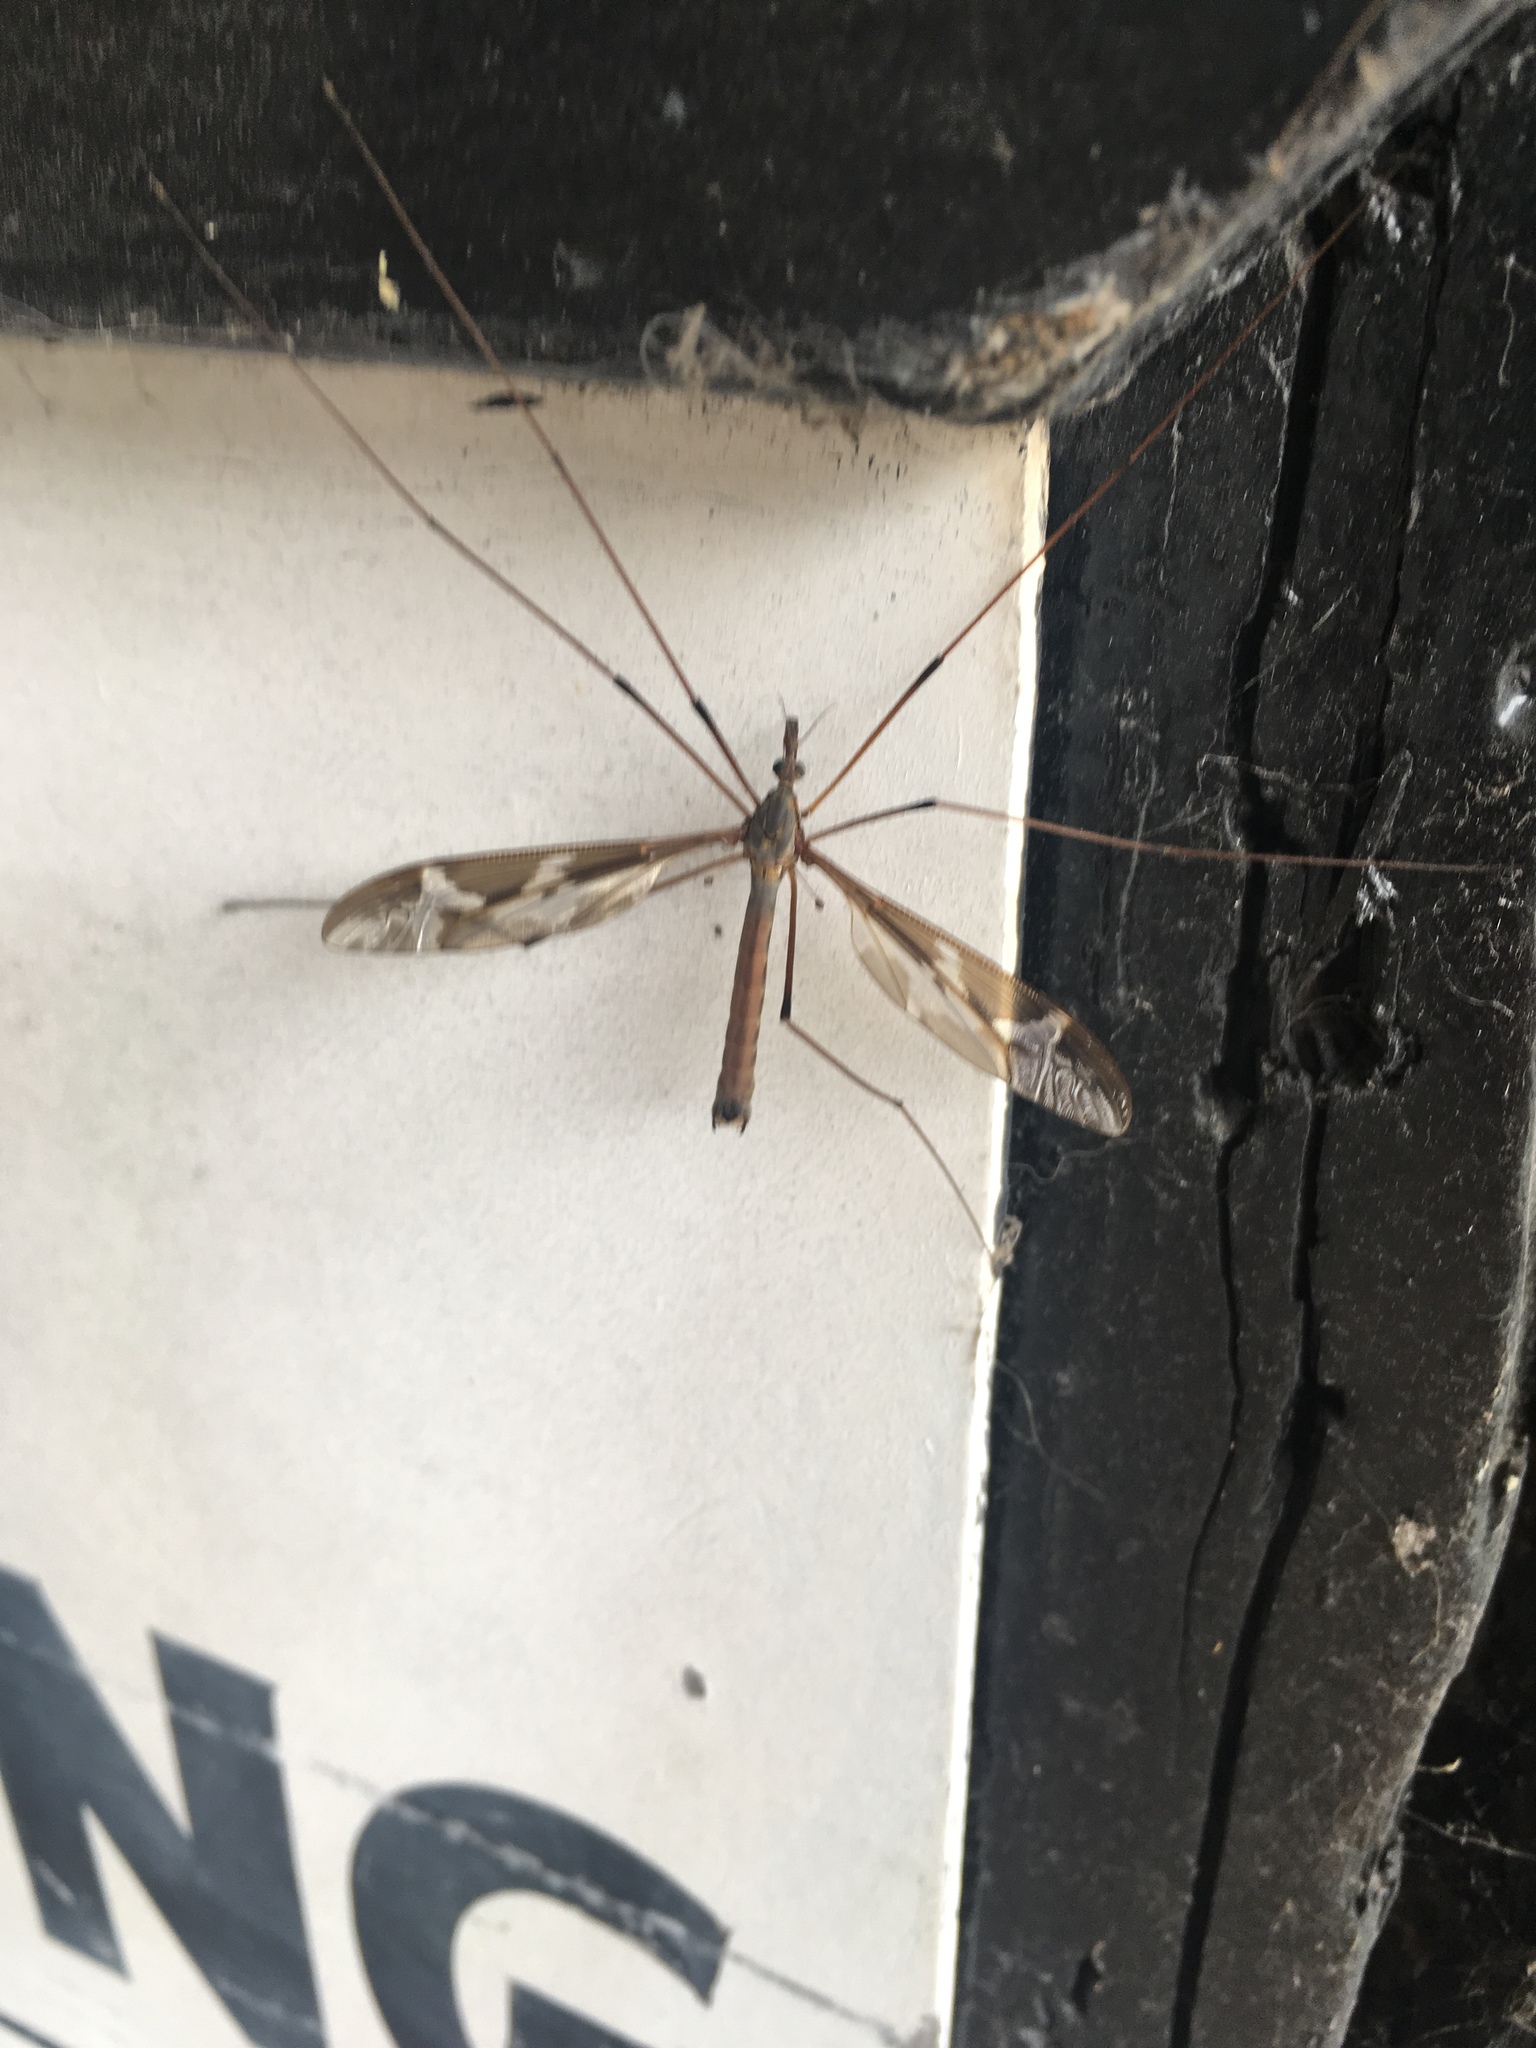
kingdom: Animalia
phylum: Arthropoda
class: Insecta
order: Diptera
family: Tipulidae
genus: Tipula
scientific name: Tipula maxima
